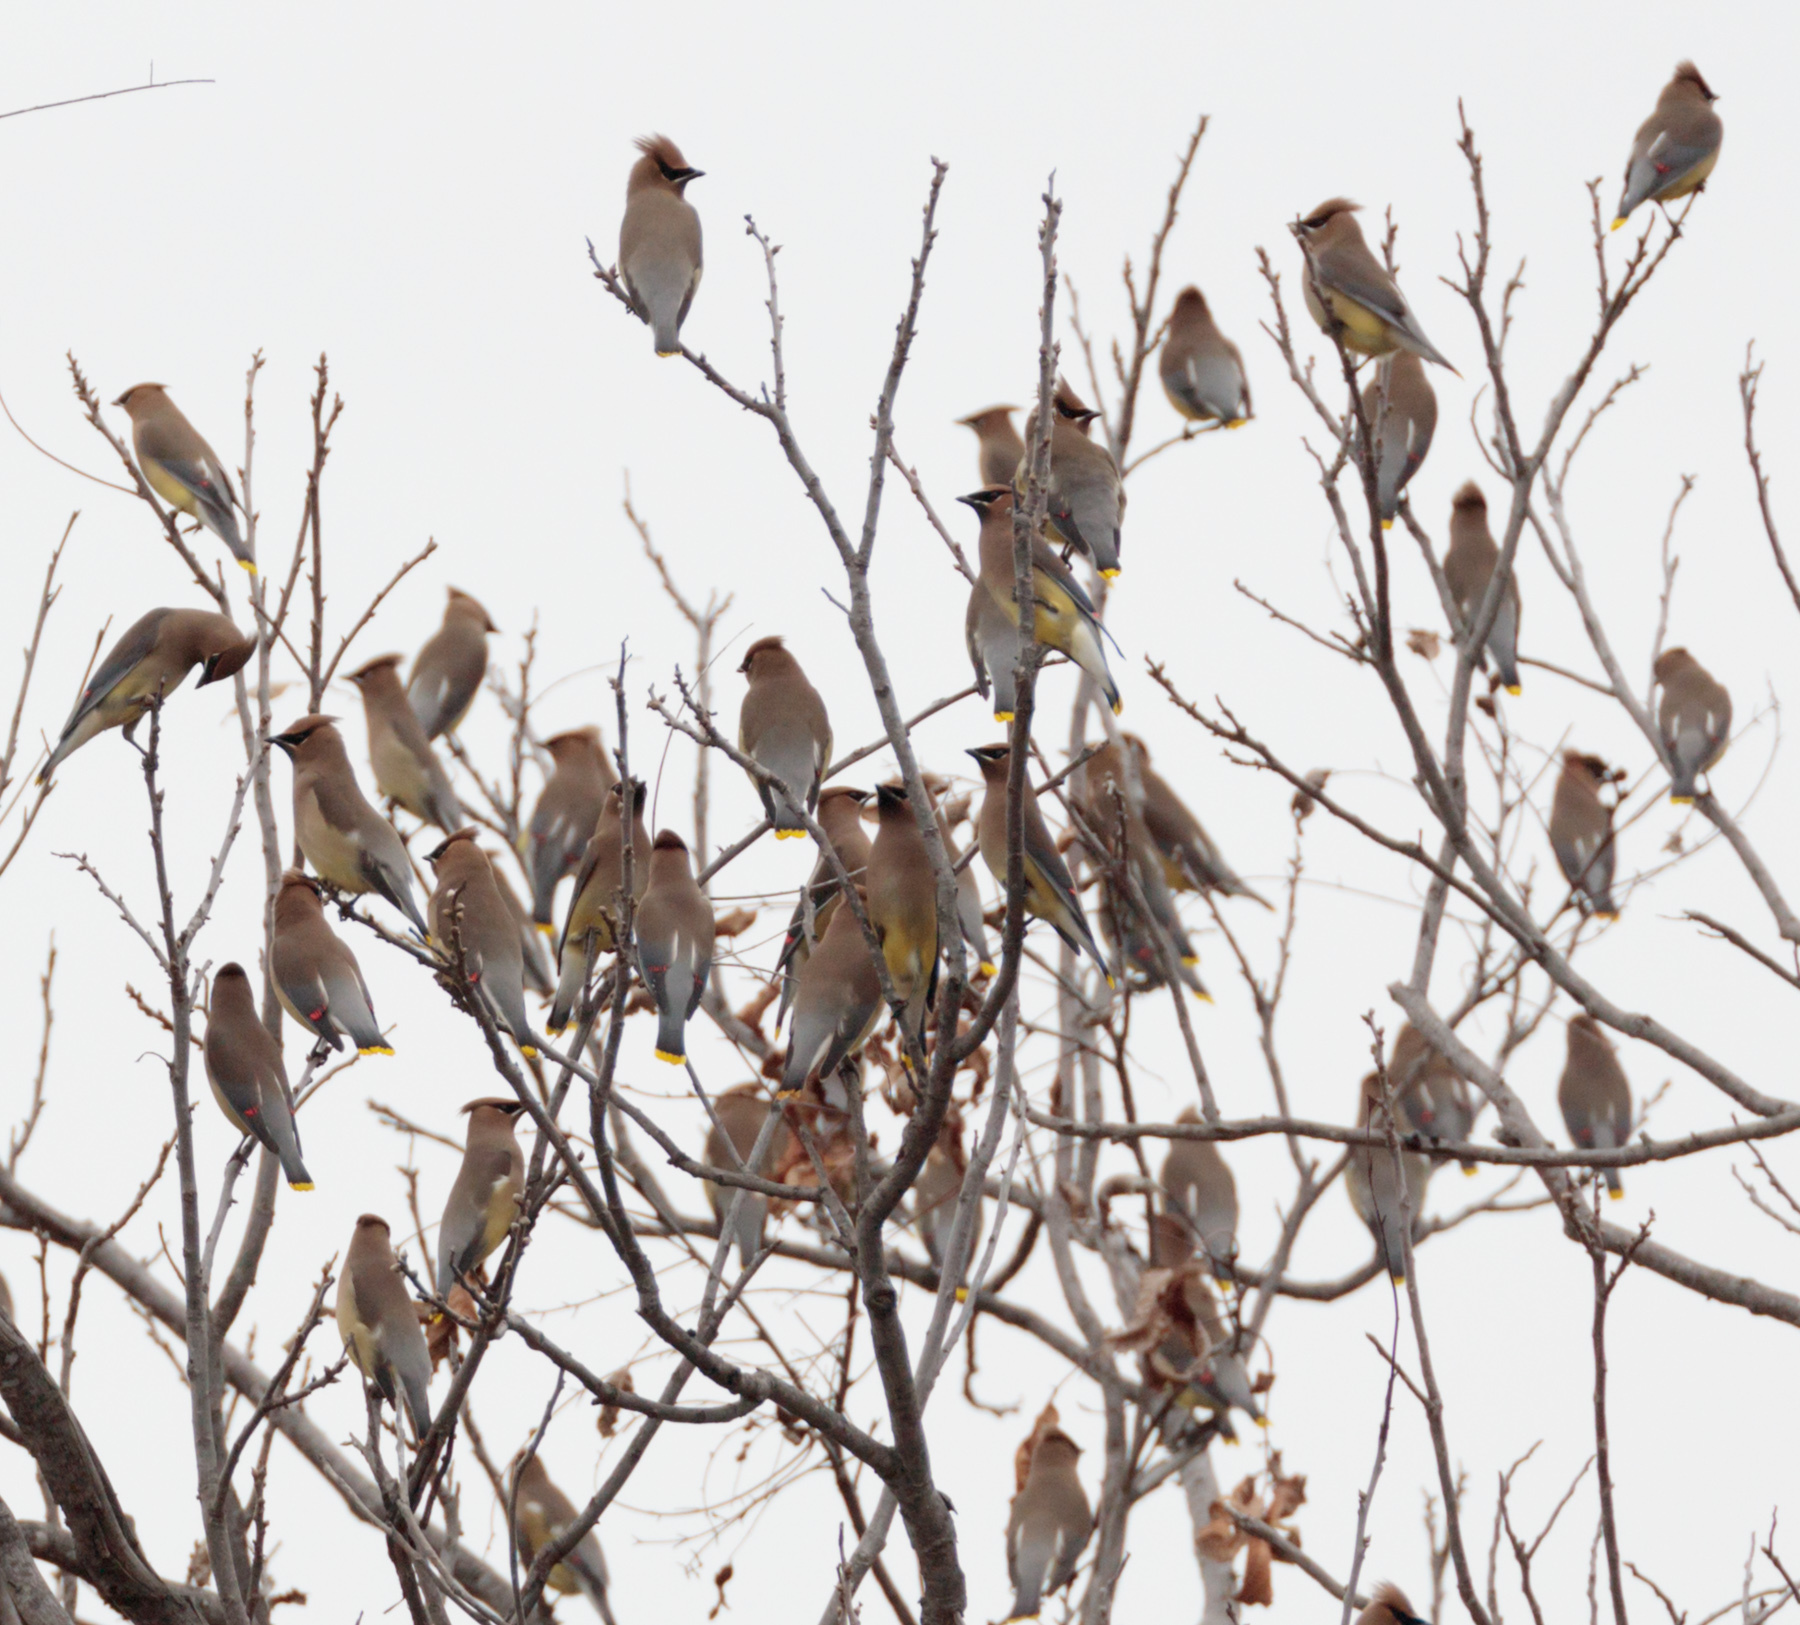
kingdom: Animalia
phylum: Chordata
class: Aves
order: Passeriformes
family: Bombycillidae
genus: Bombycilla
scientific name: Bombycilla cedrorum
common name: Cedar waxwing
